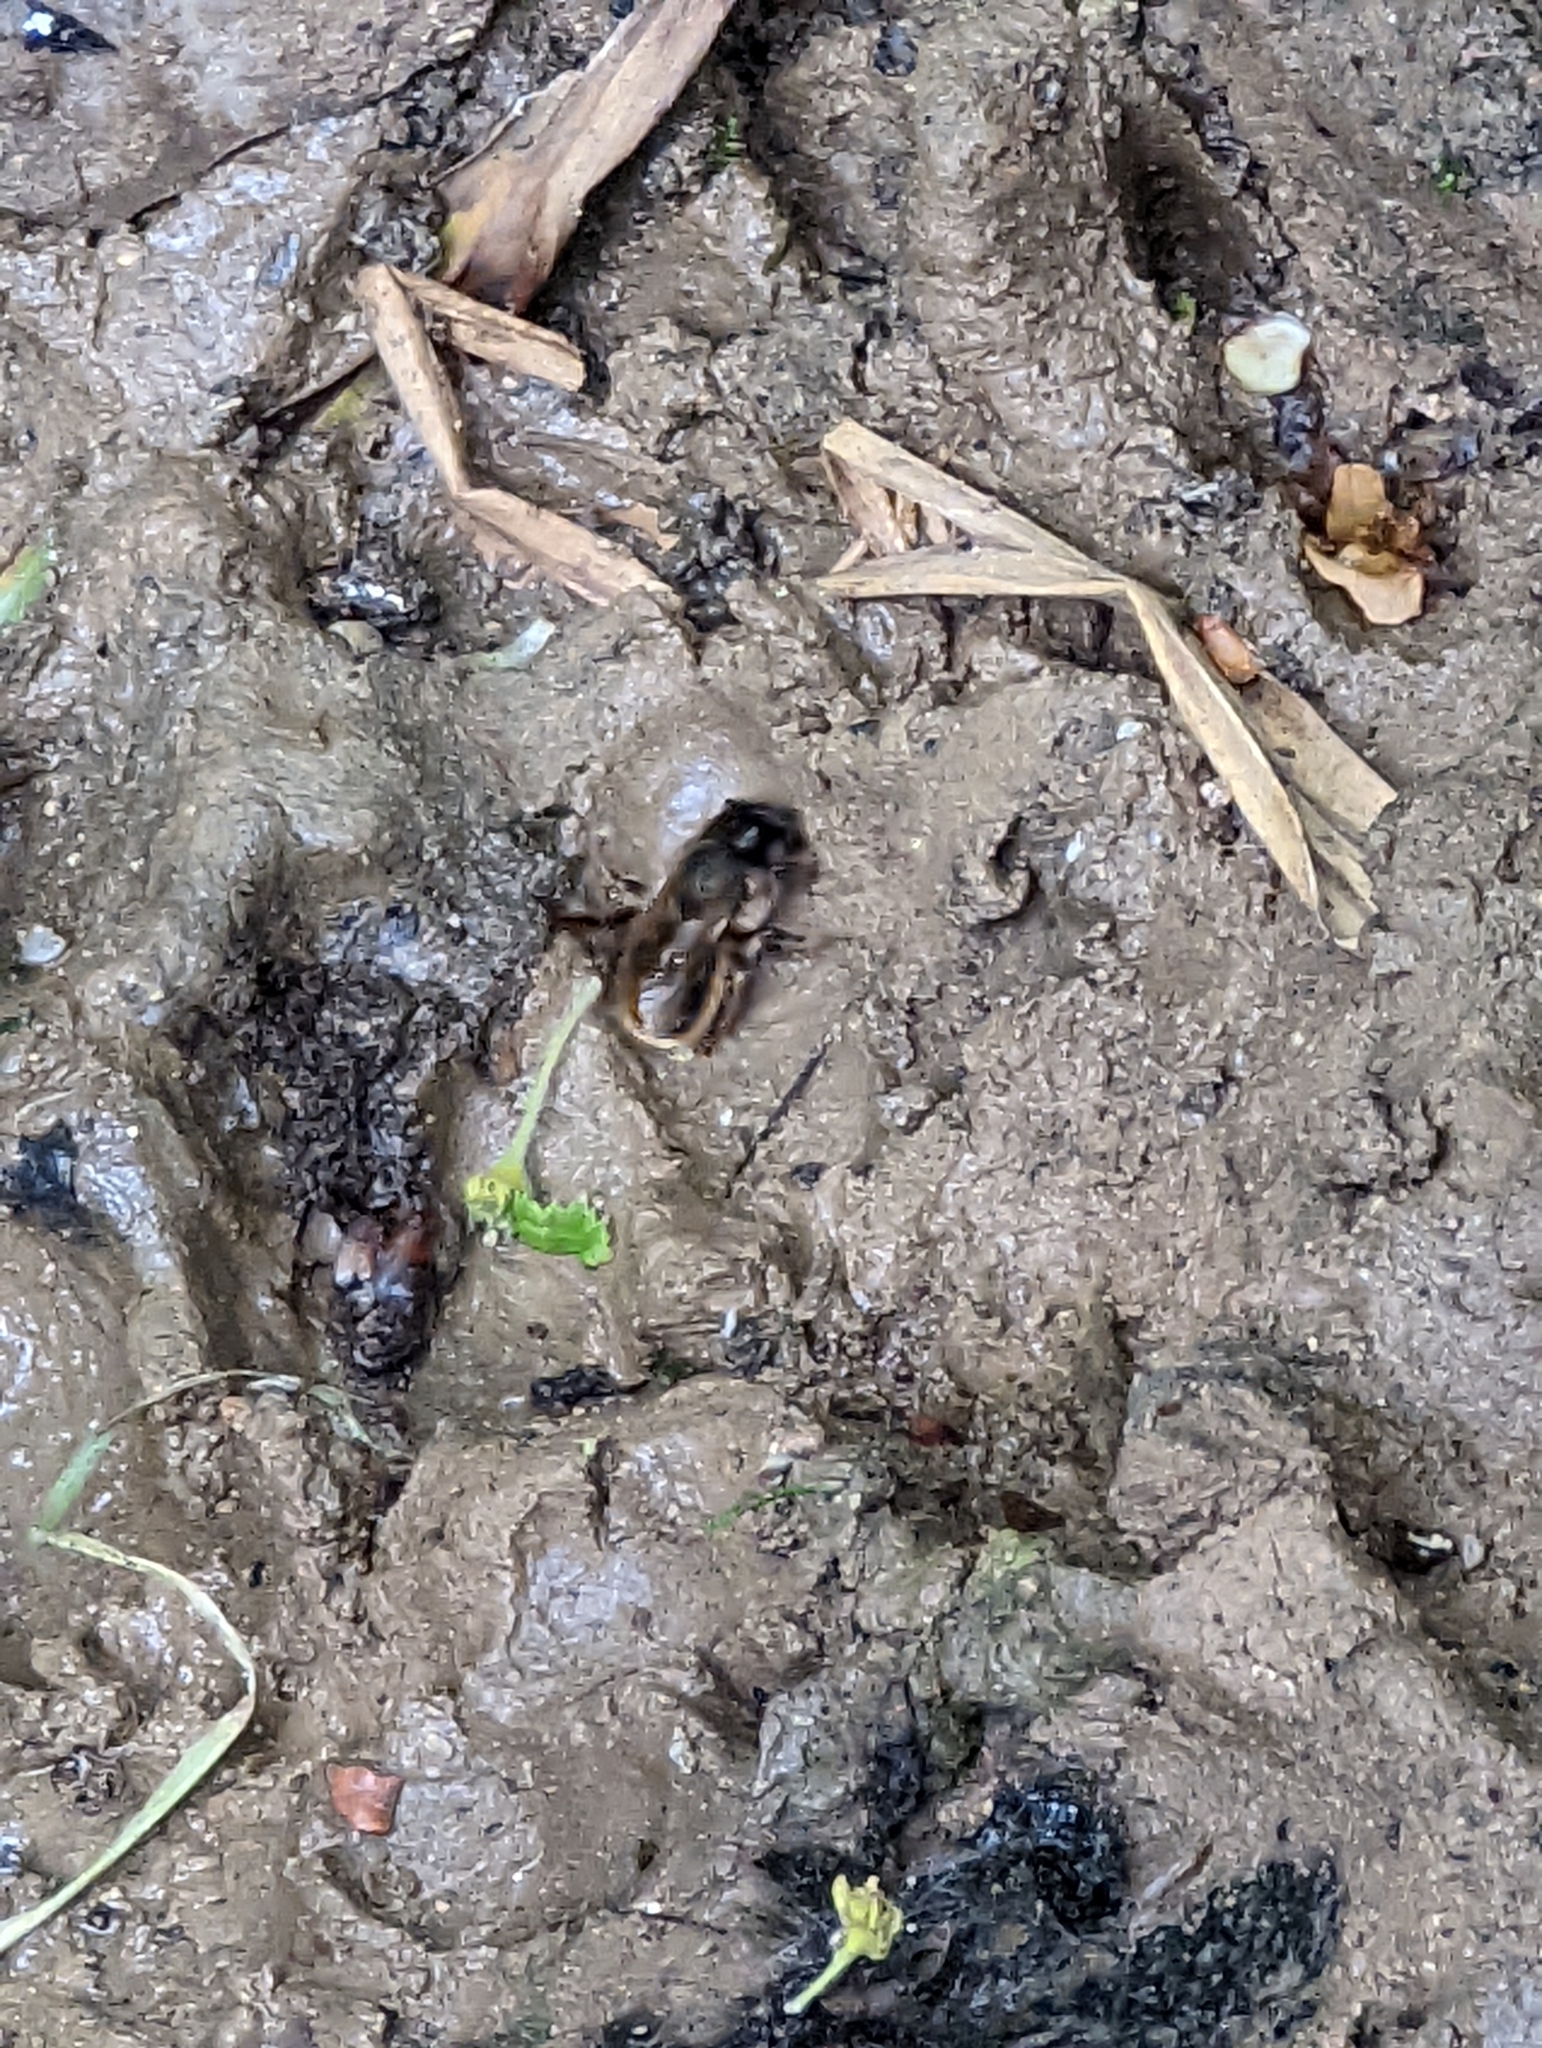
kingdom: Animalia
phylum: Arthropoda
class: Insecta
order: Hymenoptera
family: Megachilidae
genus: Osmia
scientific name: Osmia bicornis
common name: Red mason bee
